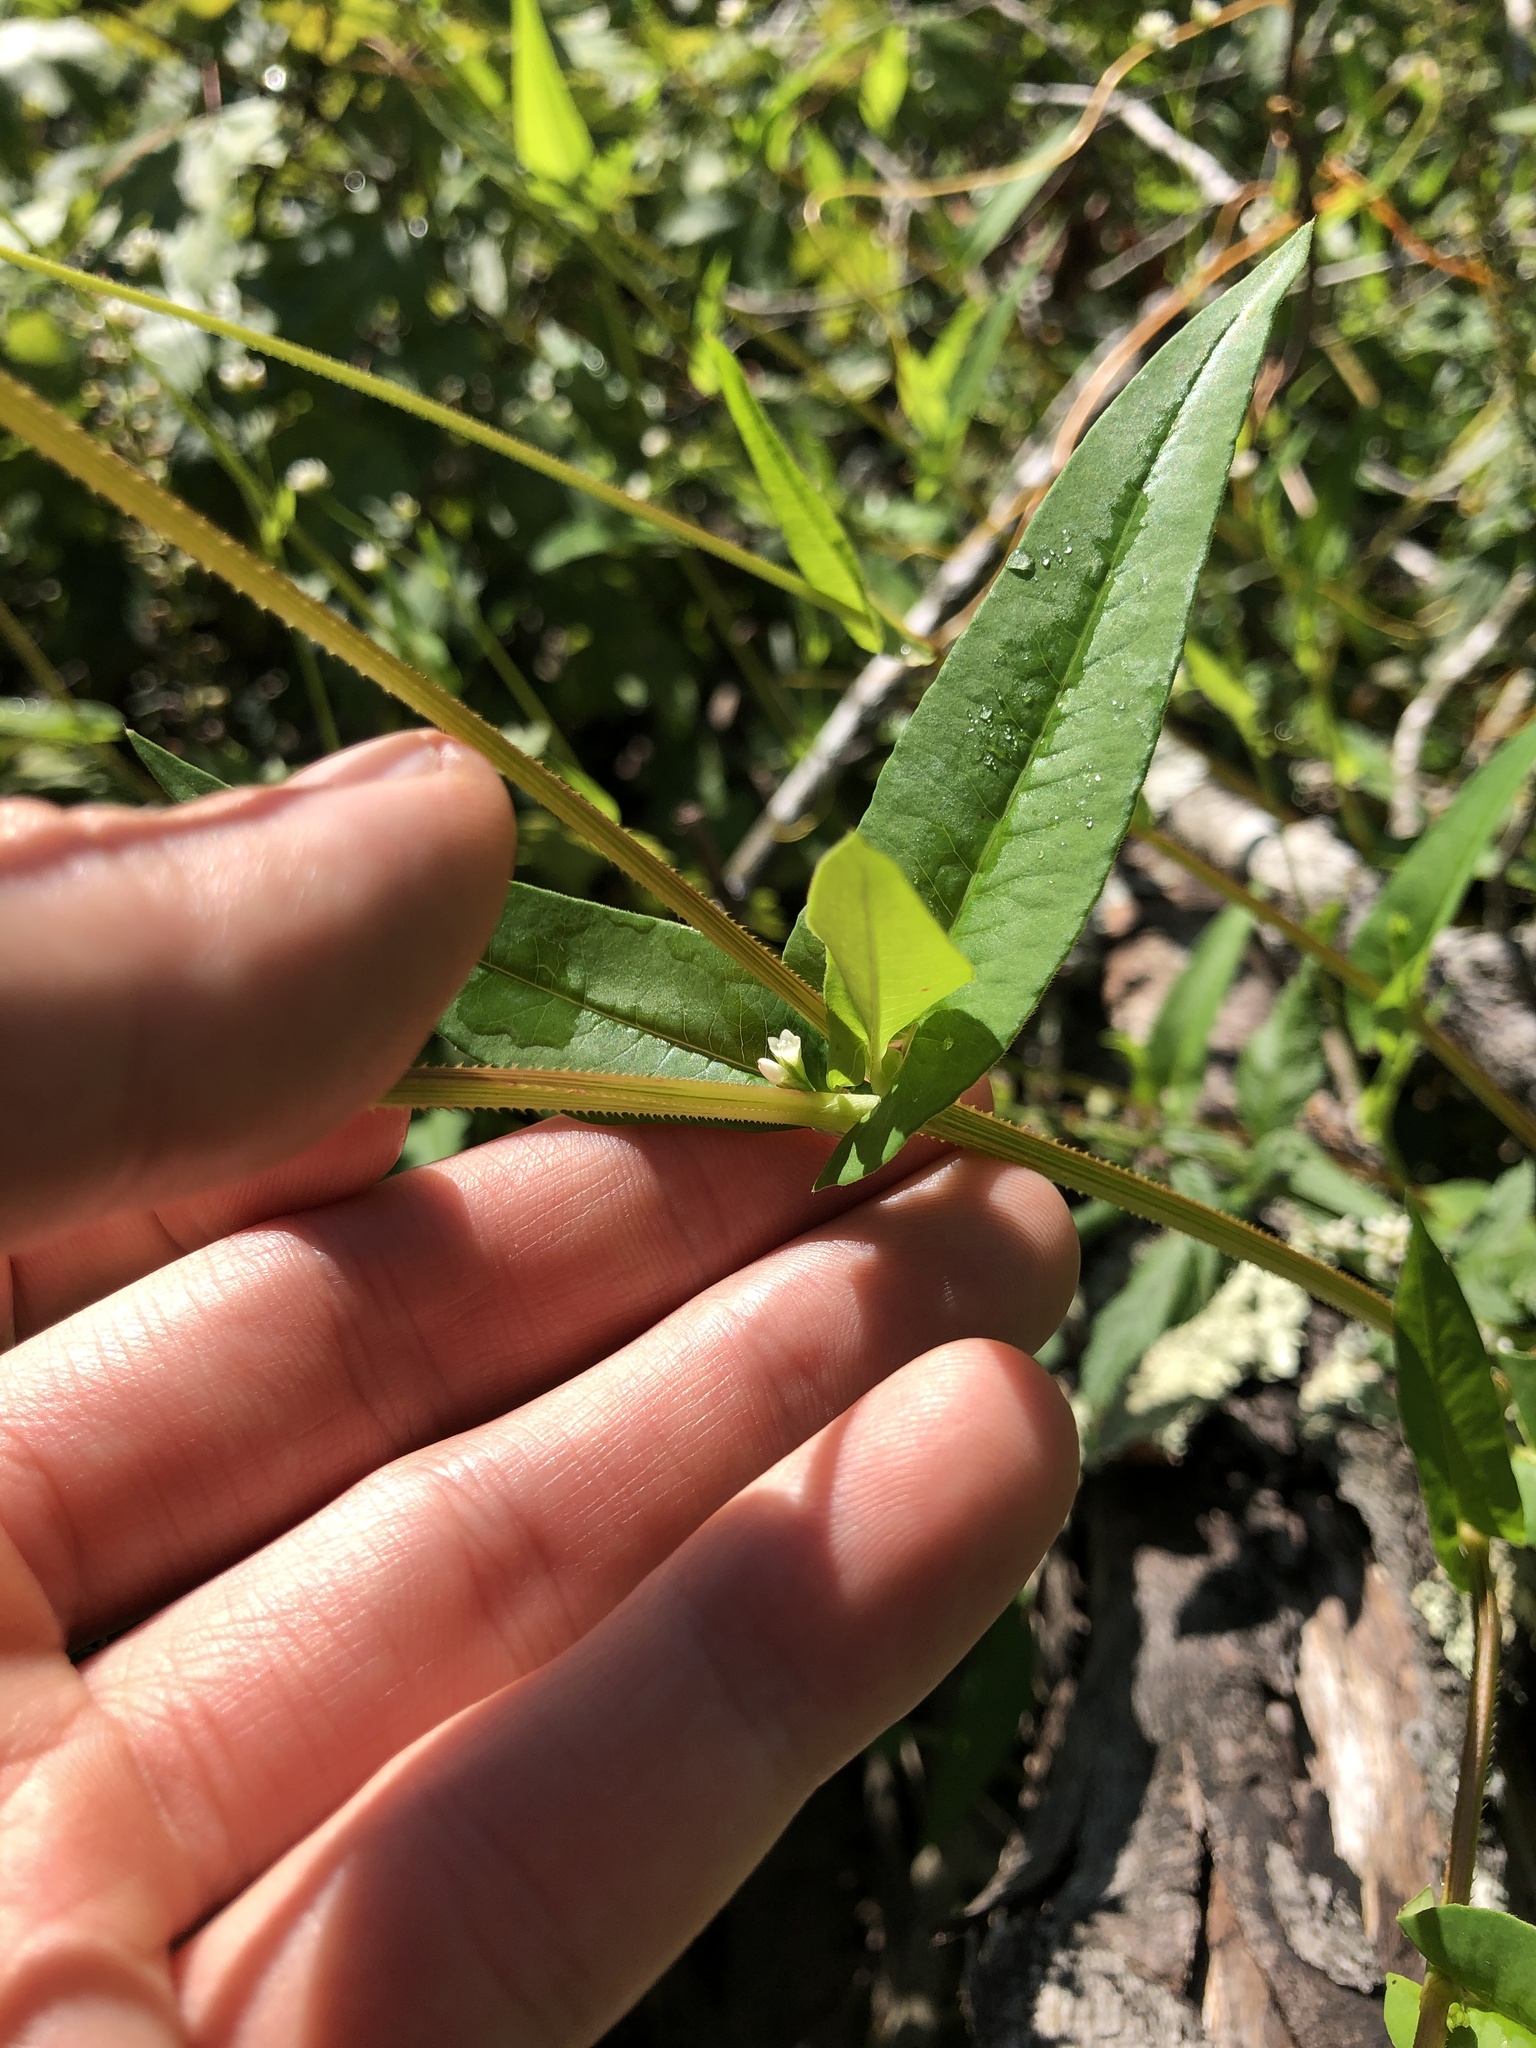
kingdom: Plantae
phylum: Tracheophyta
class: Magnoliopsida
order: Caryophyllales
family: Polygonaceae
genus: Persicaria
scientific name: Persicaria sagittata
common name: American tearthumb
